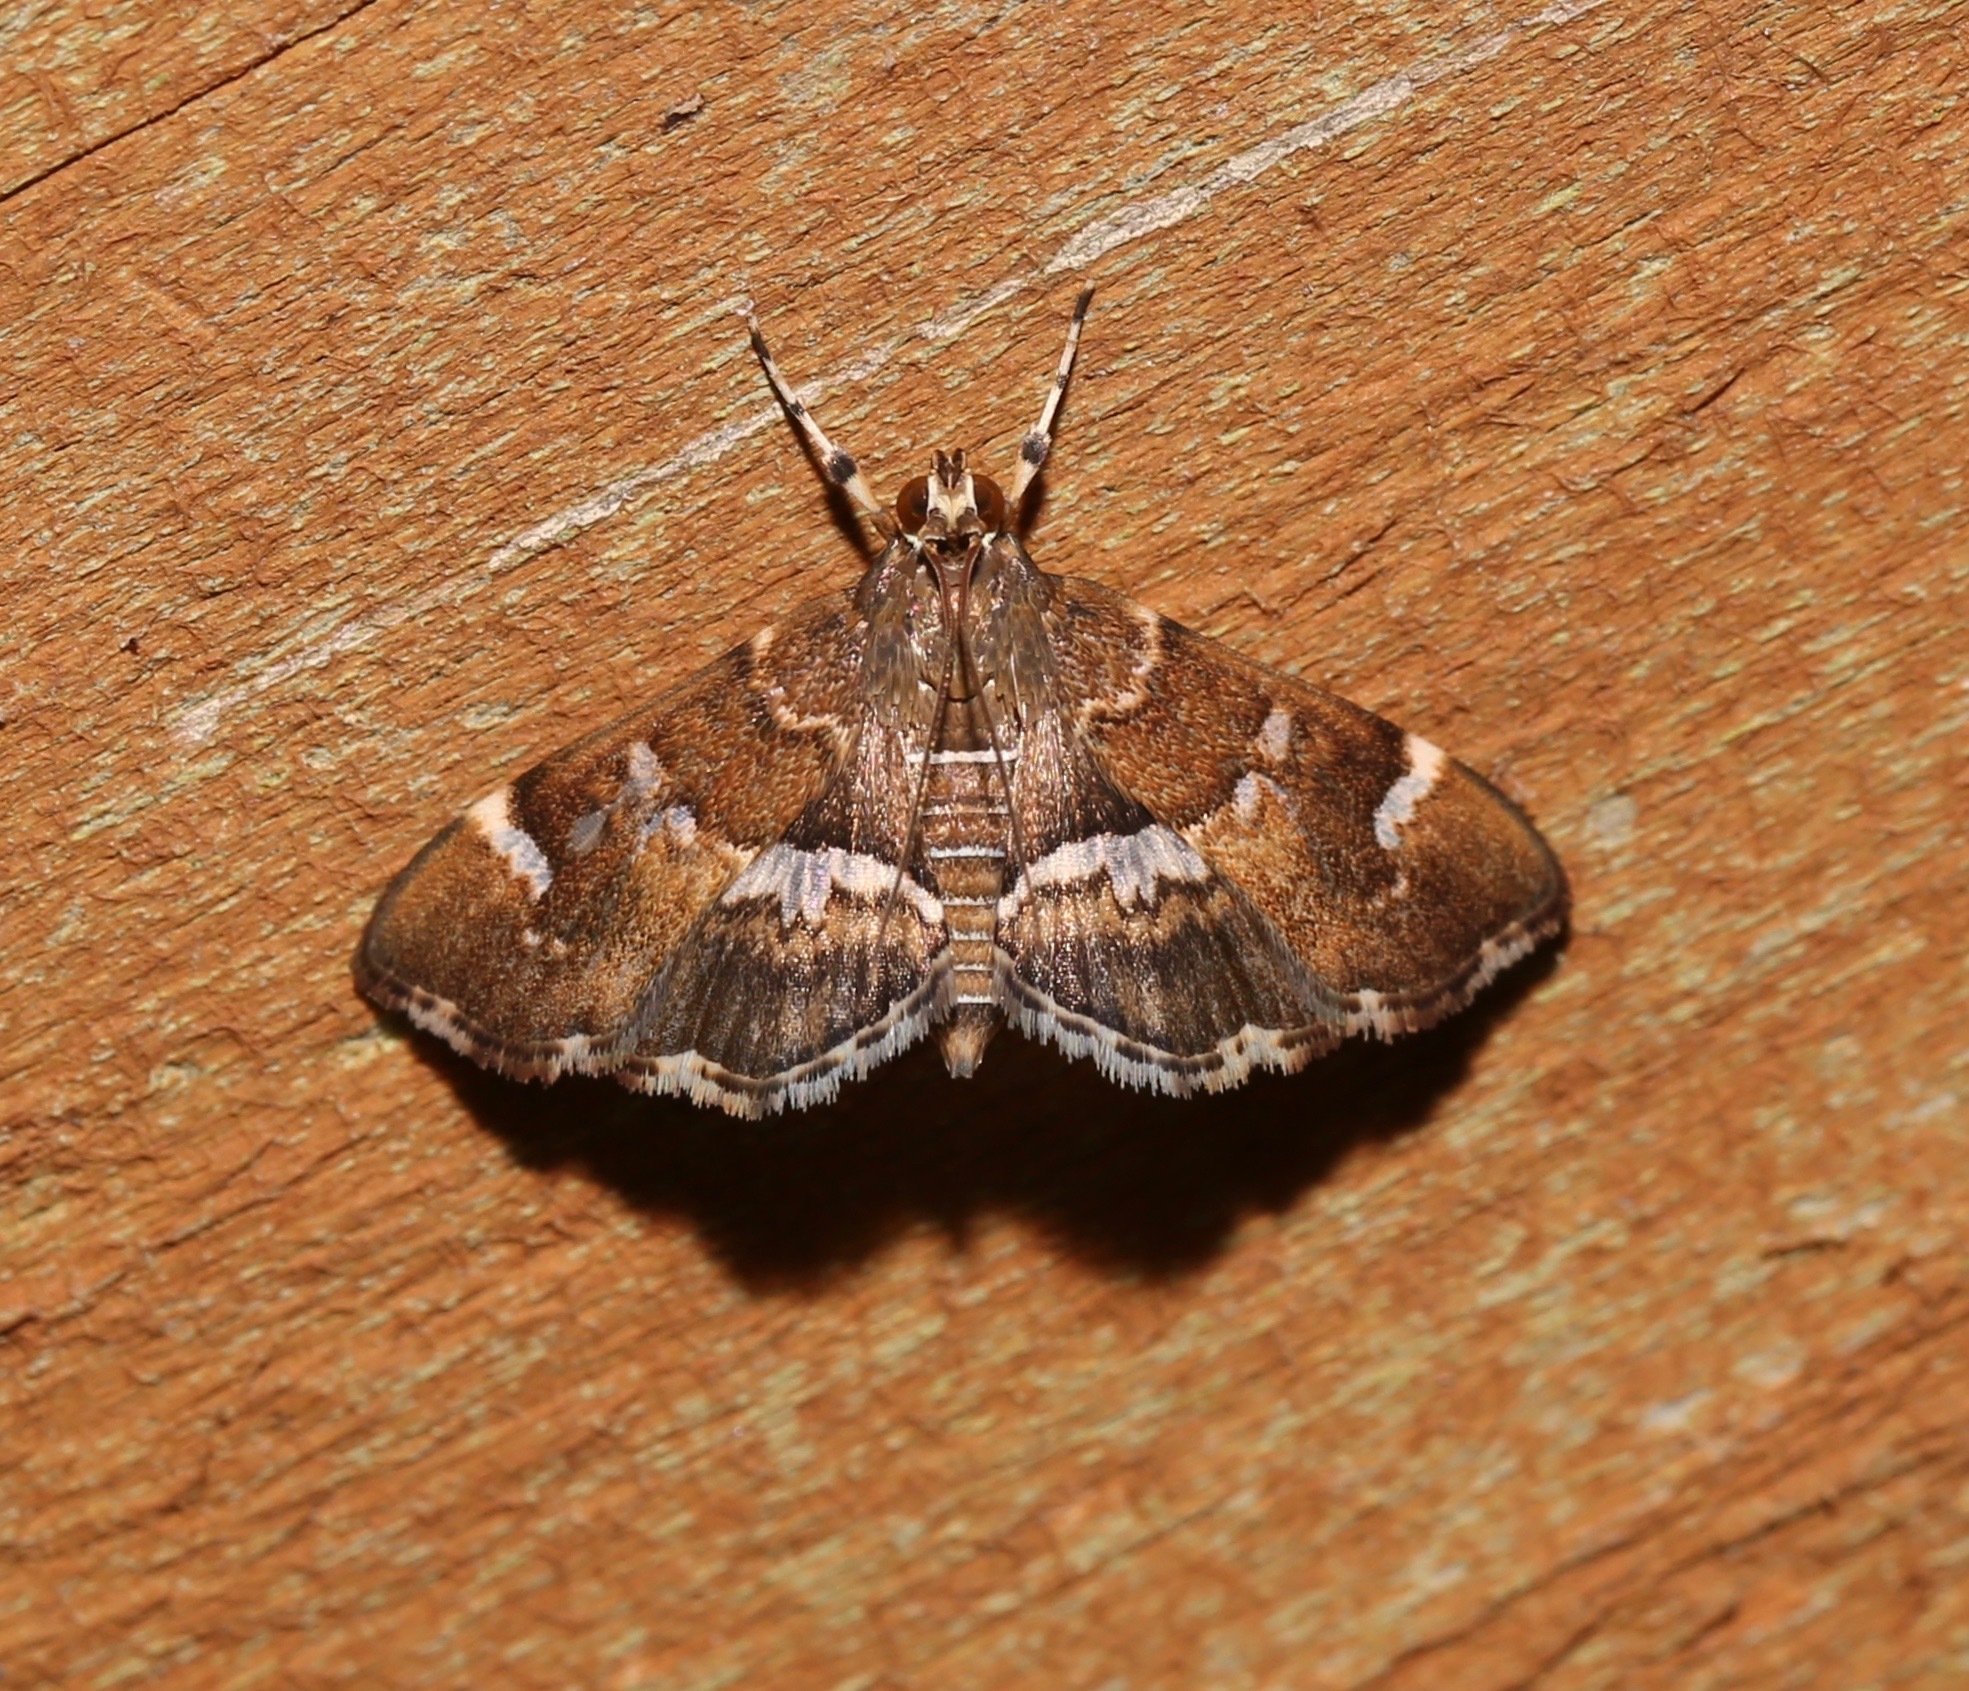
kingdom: Animalia
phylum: Arthropoda
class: Insecta
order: Lepidoptera
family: Crambidae
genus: Hymenia
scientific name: Hymenia perspectalis
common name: Spotted beet webworm
